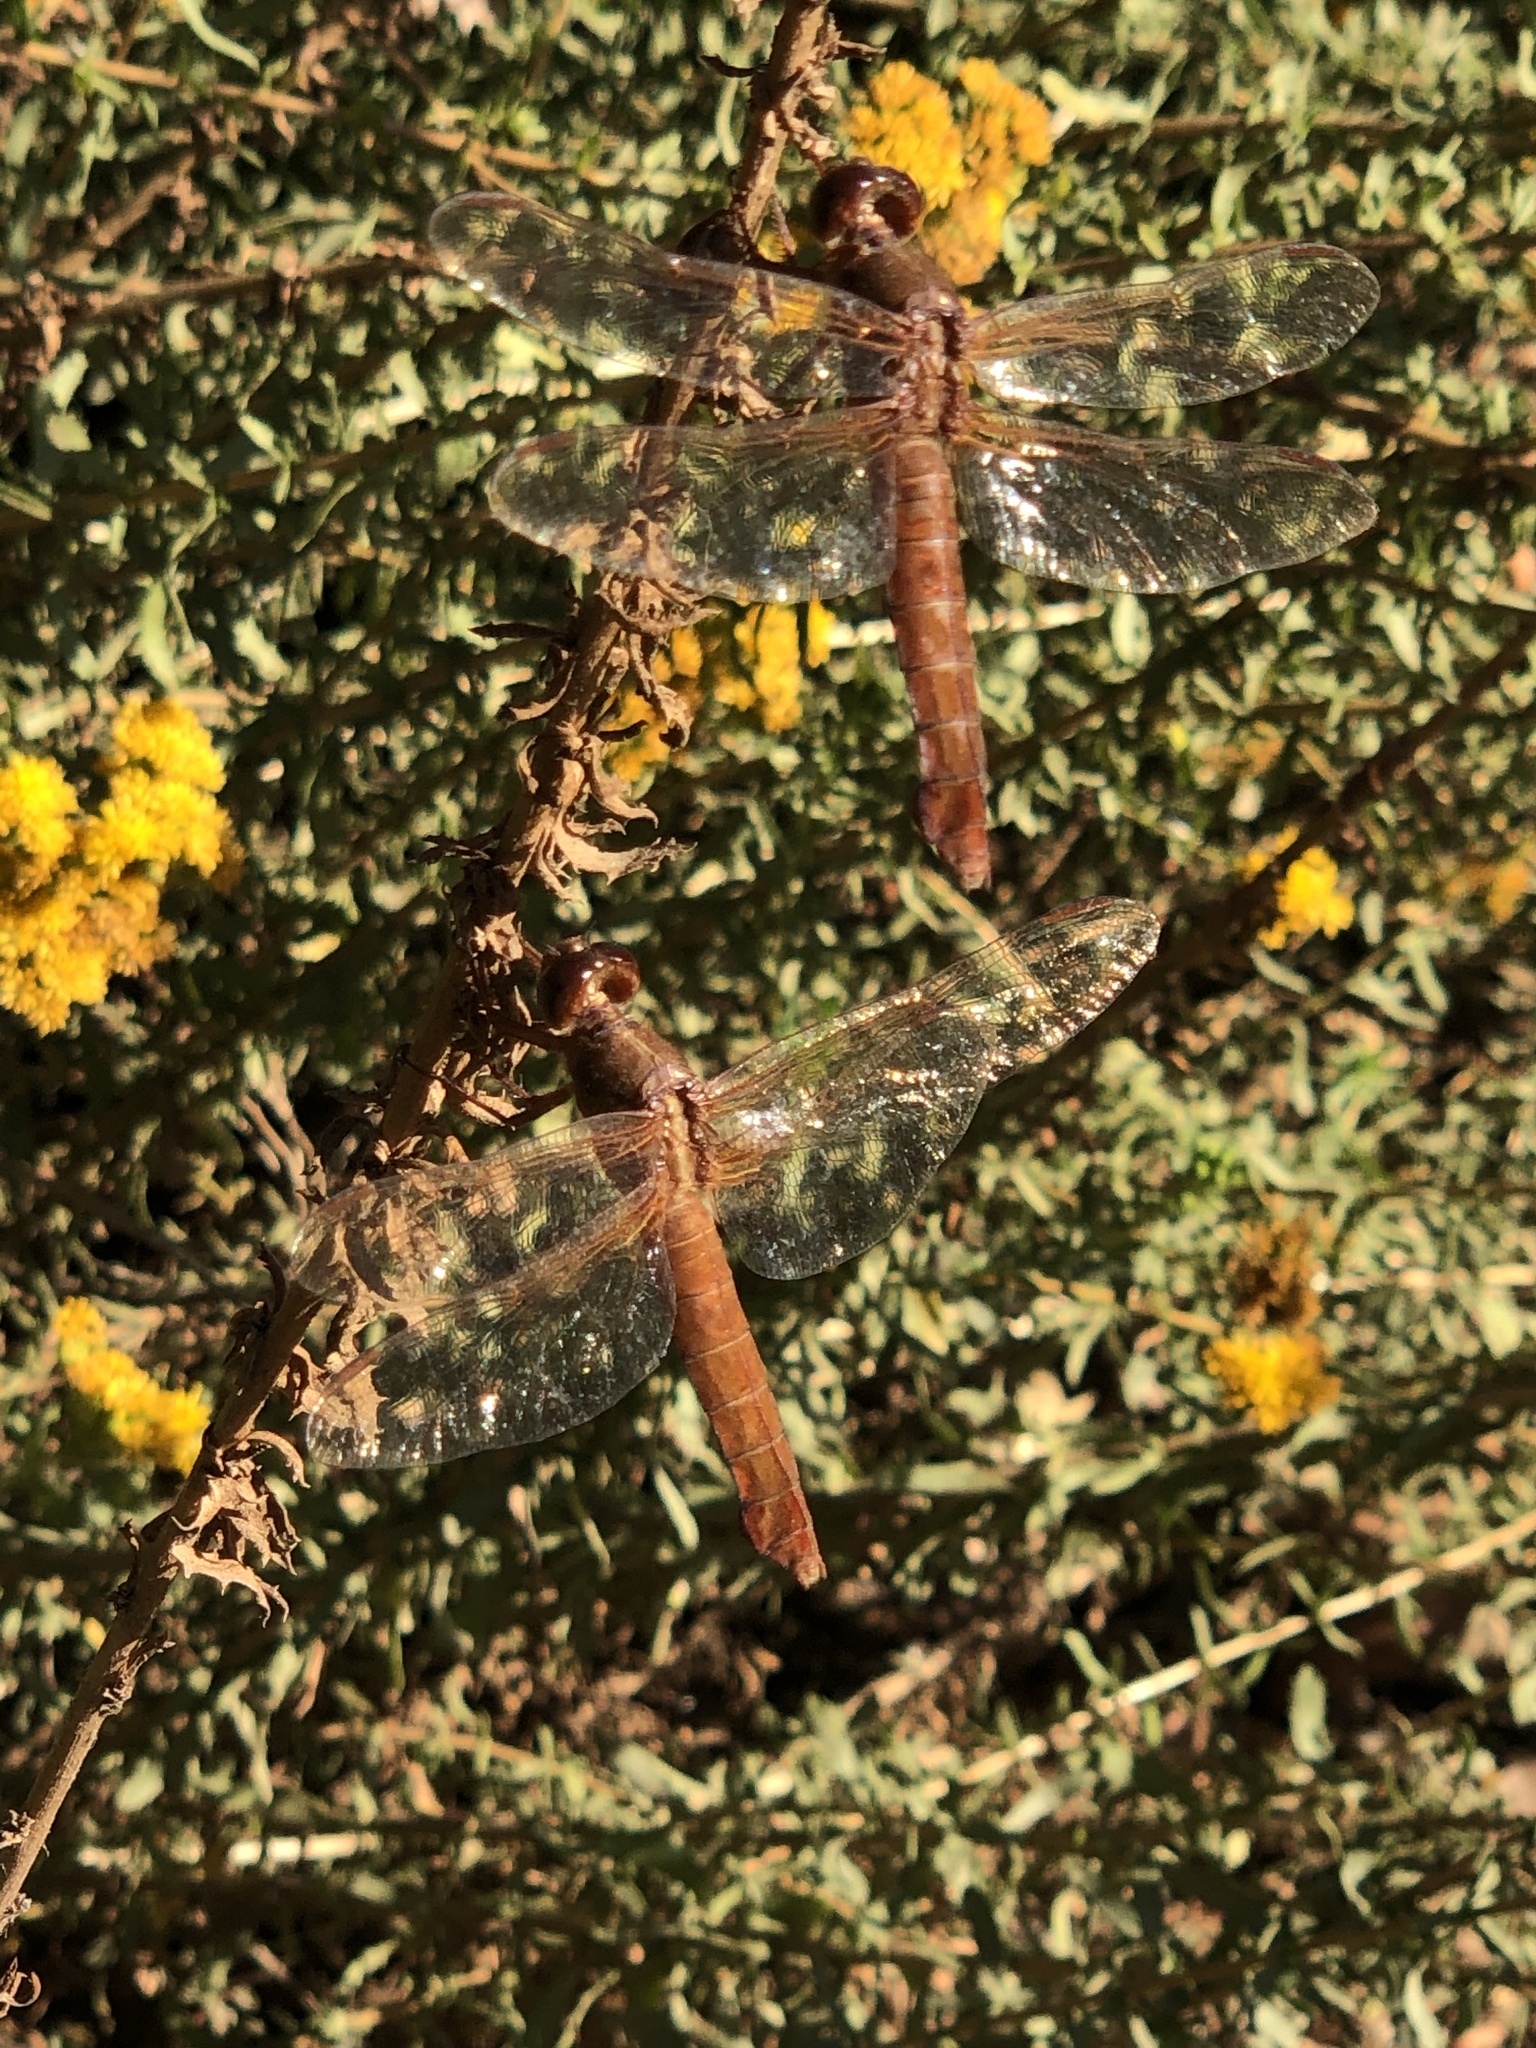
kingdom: Animalia
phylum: Arthropoda
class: Insecta
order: Odonata
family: Libellulidae
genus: Libellula
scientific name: Libellula croceipennis
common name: Neon skimmer
